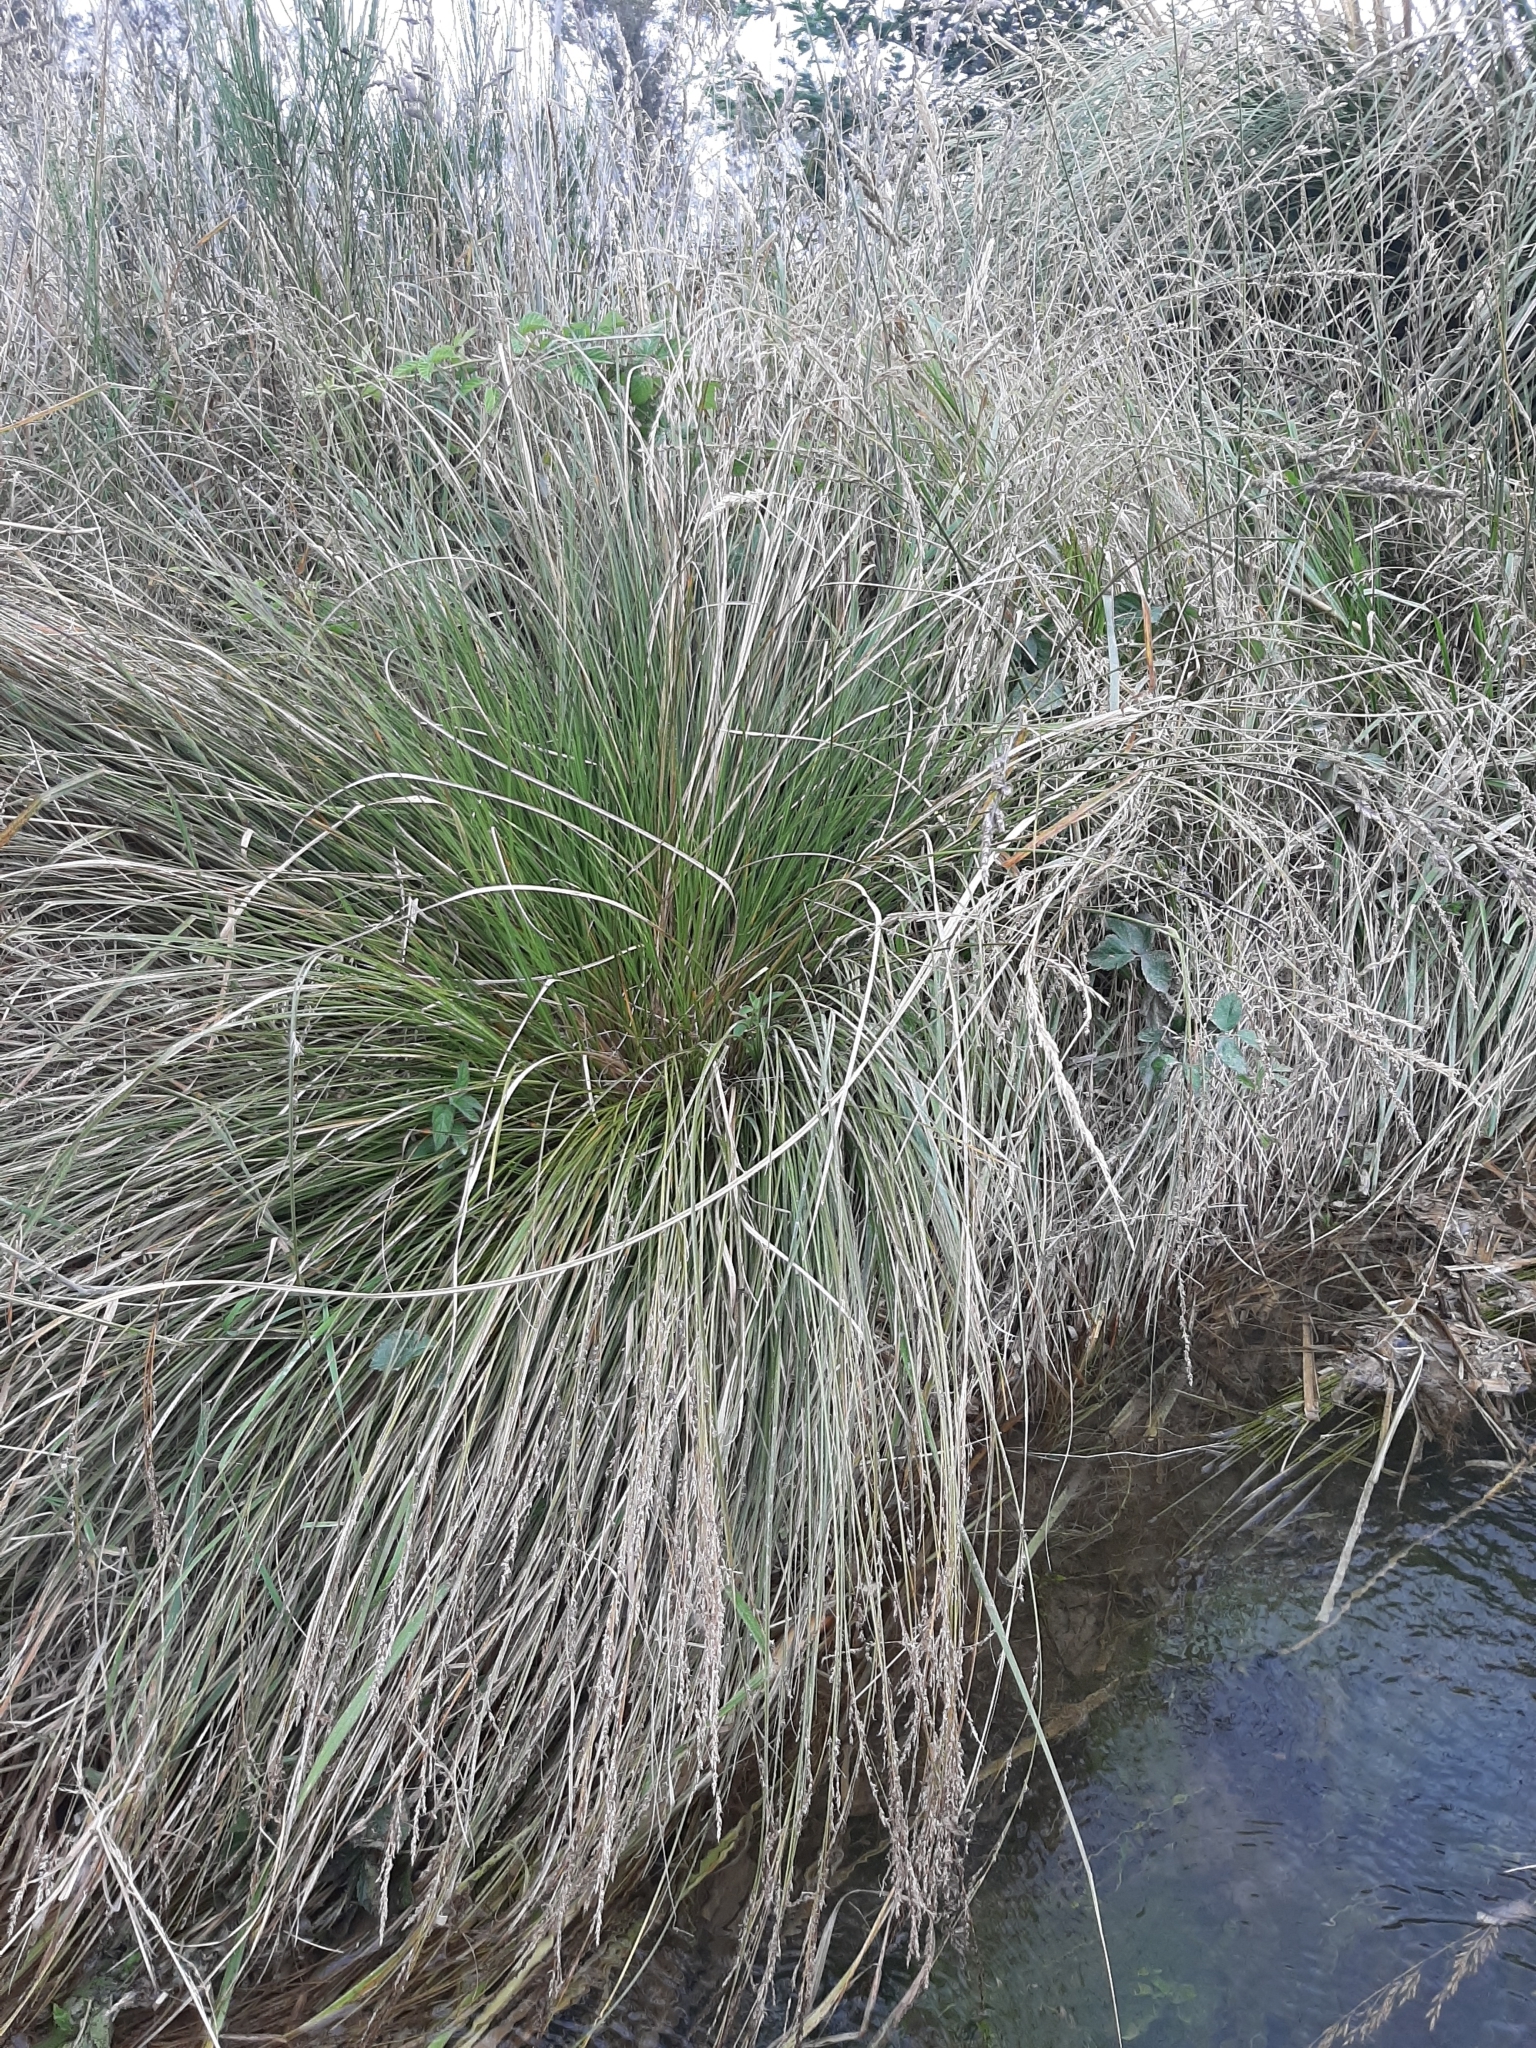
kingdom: Plantae
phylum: Tracheophyta
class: Liliopsida
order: Poales
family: Cyperaceae
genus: Carex
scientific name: Carex secta
